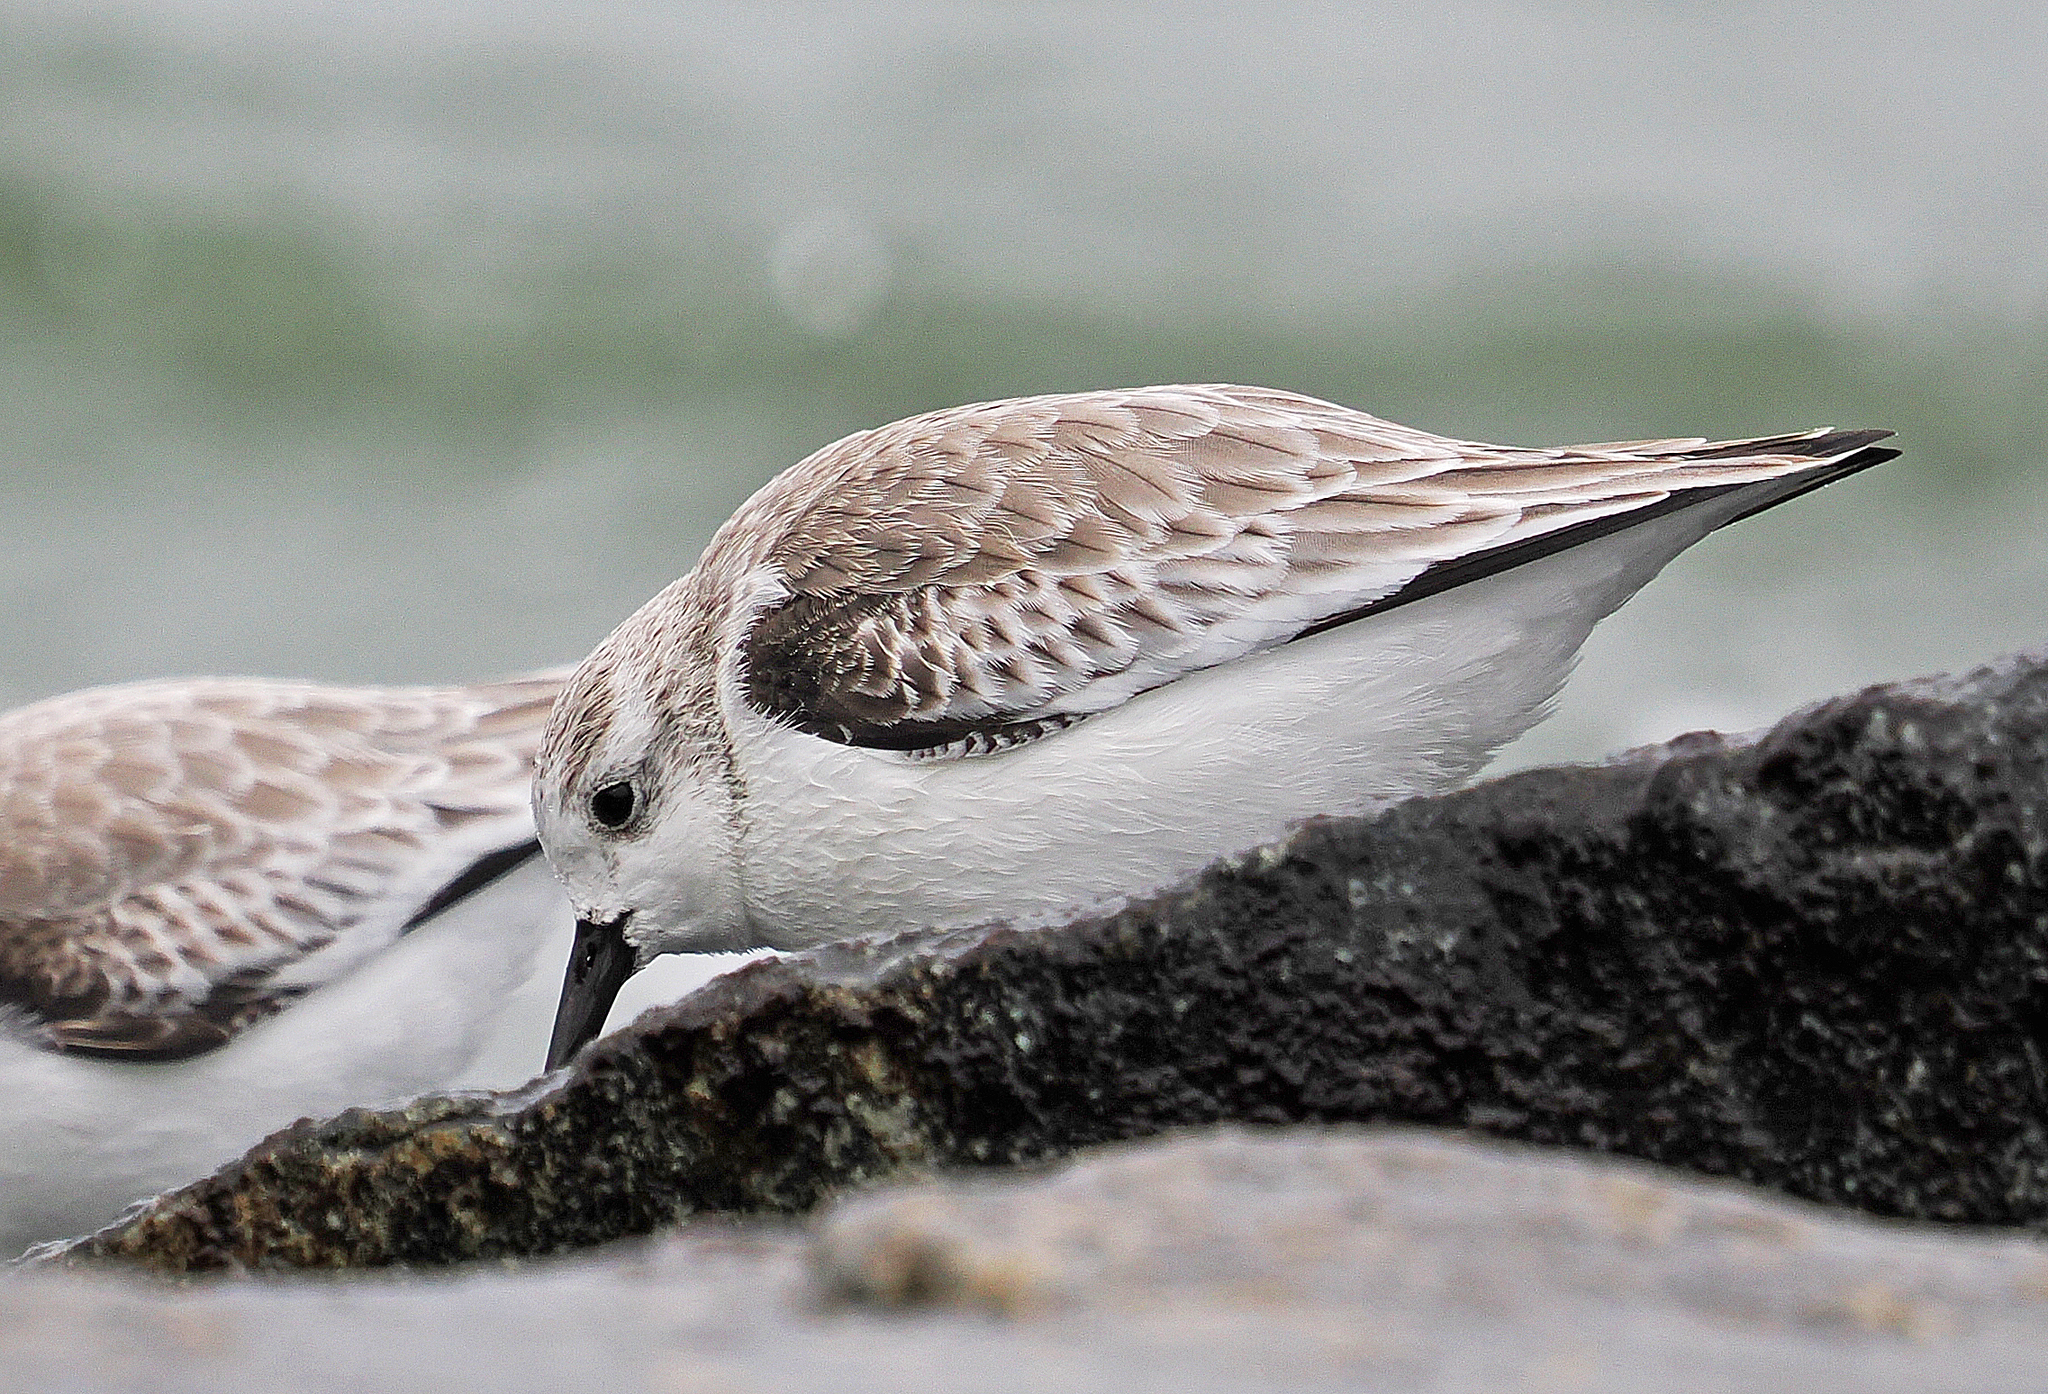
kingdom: Animalia
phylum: Chordata
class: Aves
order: Charadriiformes
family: Scolopacidae
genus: Calidris
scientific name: Calidris alba
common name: Sanderling
